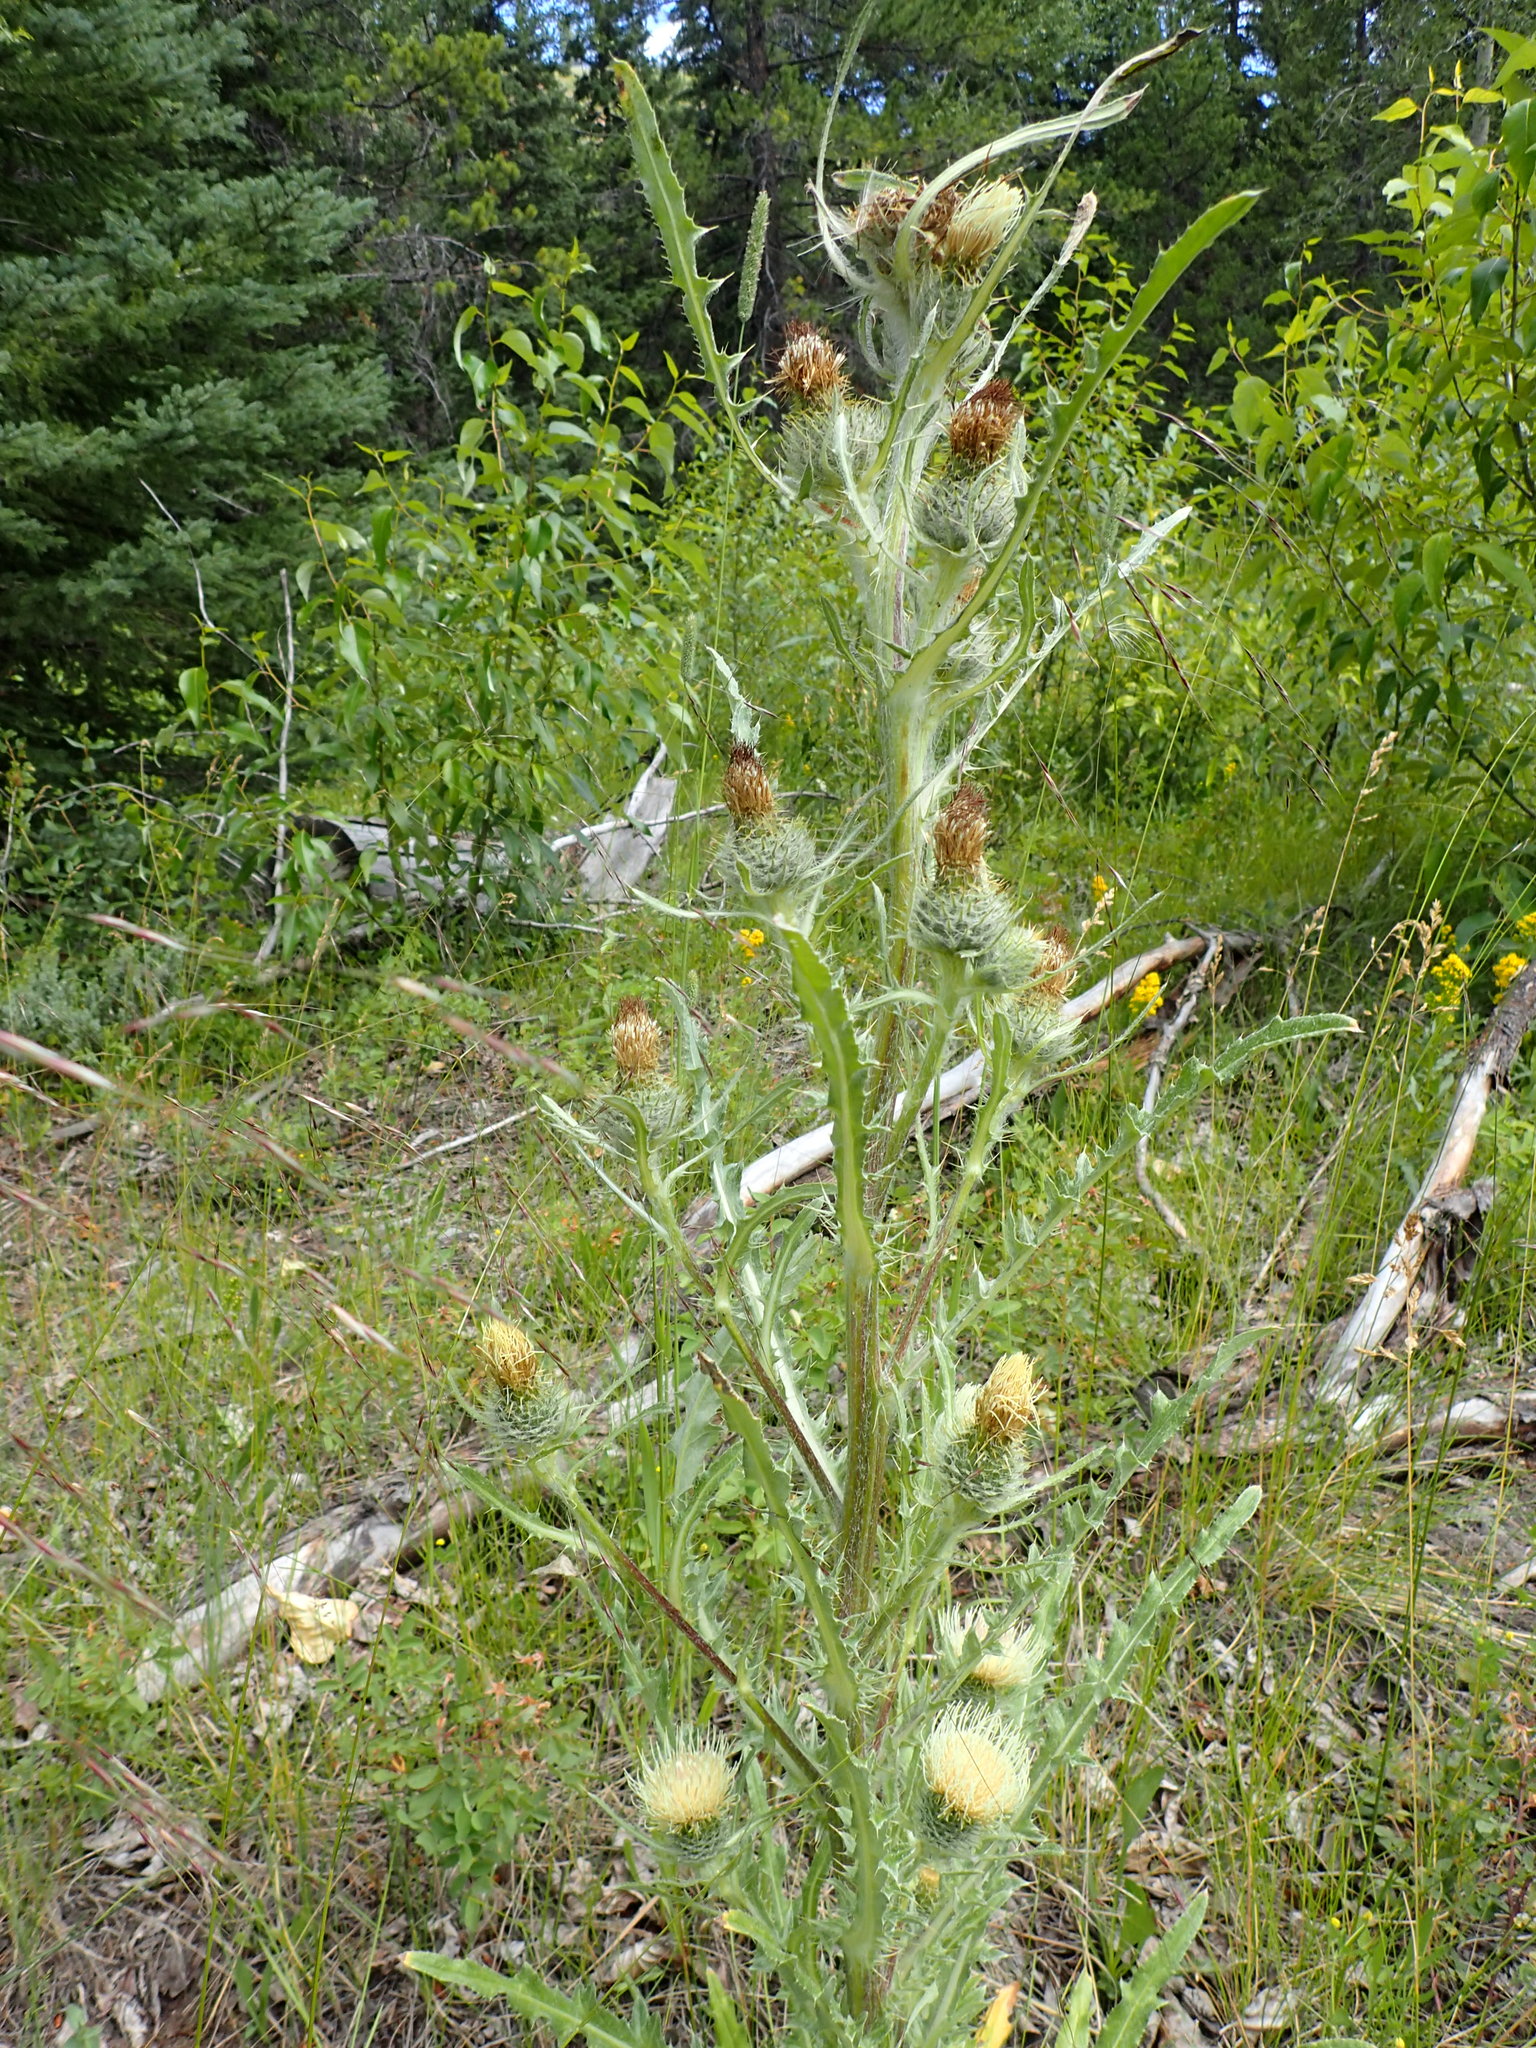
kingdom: Plantae
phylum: Tracheophyta
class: Magnoliopsida
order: Asterales
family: Asteraceae
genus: Cirsium
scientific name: Cirsium hookerianum
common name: Hooker's thistle
